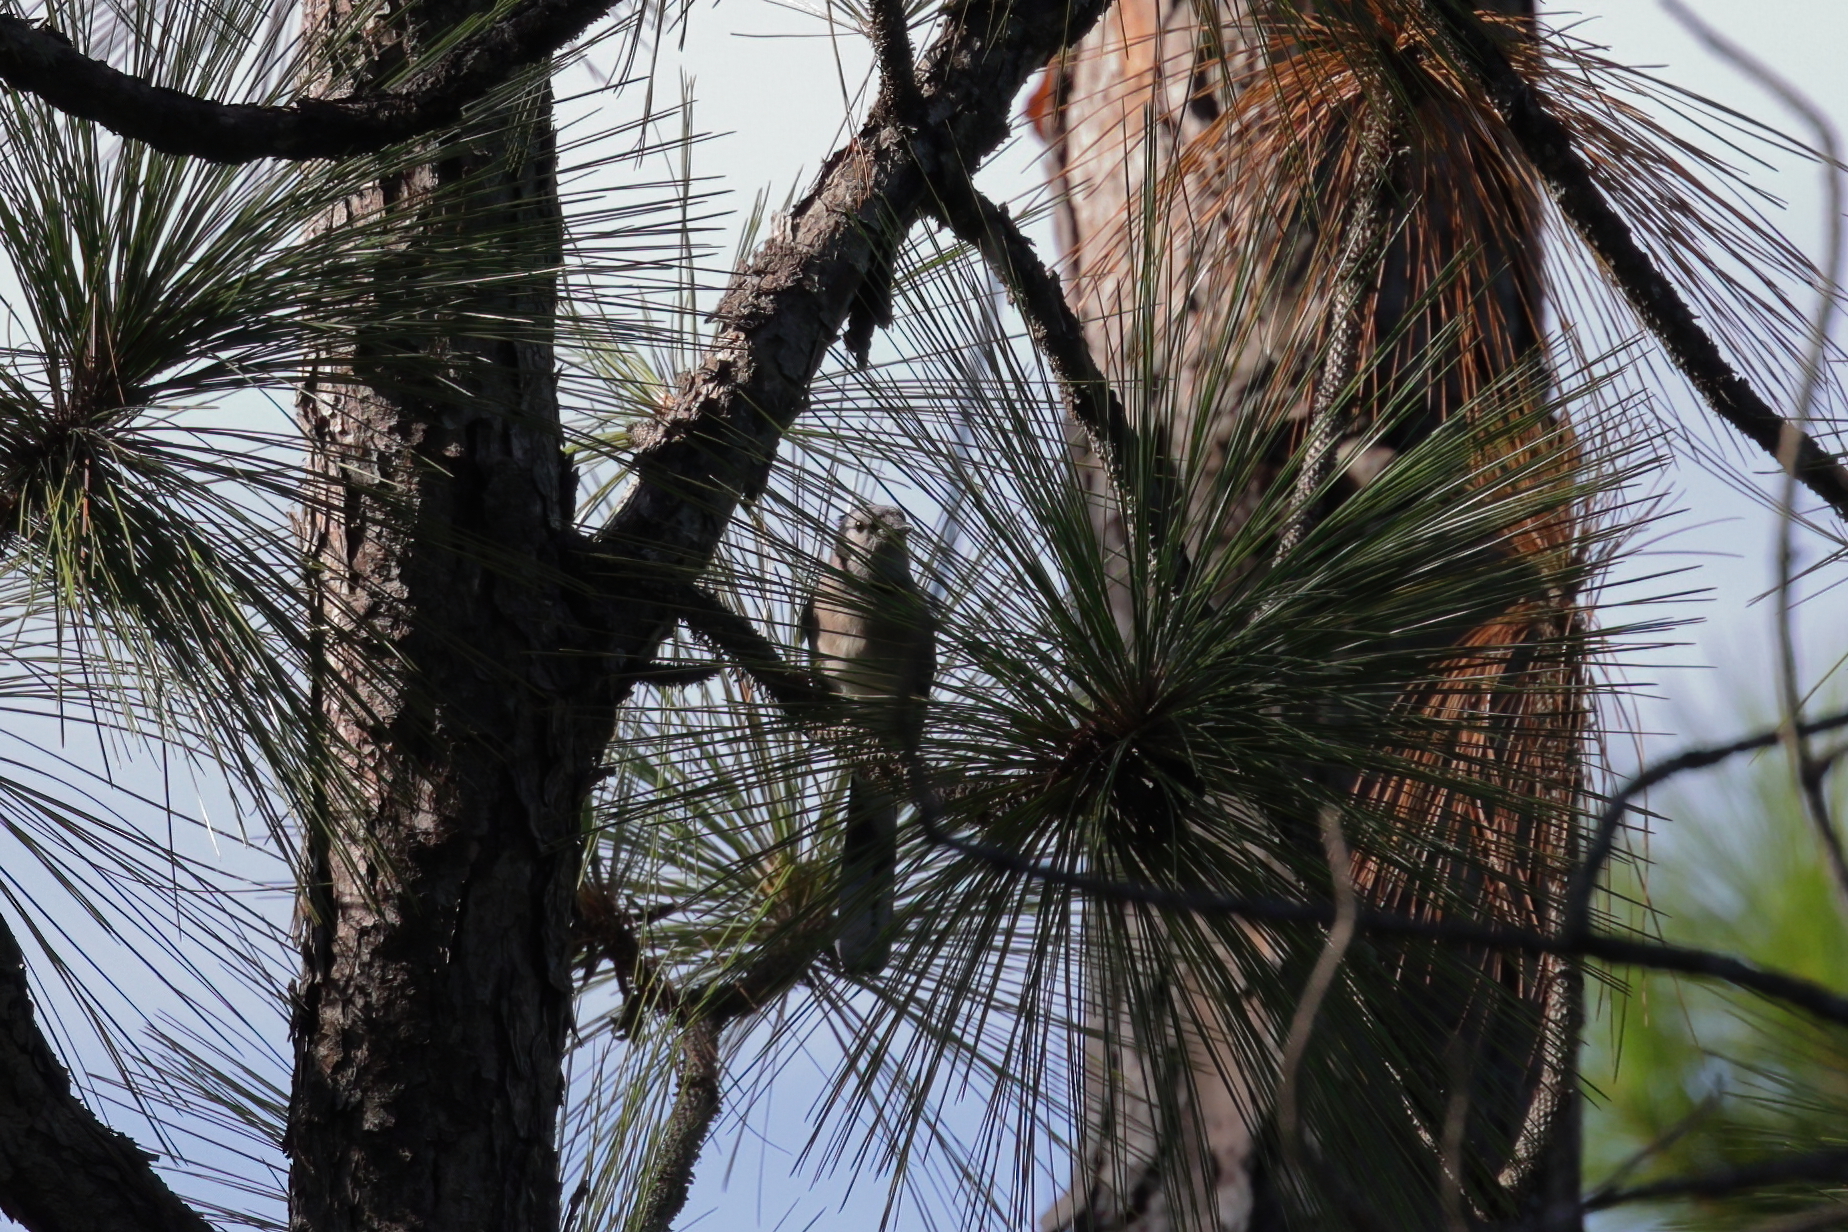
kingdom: Animalia
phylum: Chordata
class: Aves
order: Passeriformes
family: Corvidae
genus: Cyanocitta
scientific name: Cyanocitta cristata
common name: Blue jay
